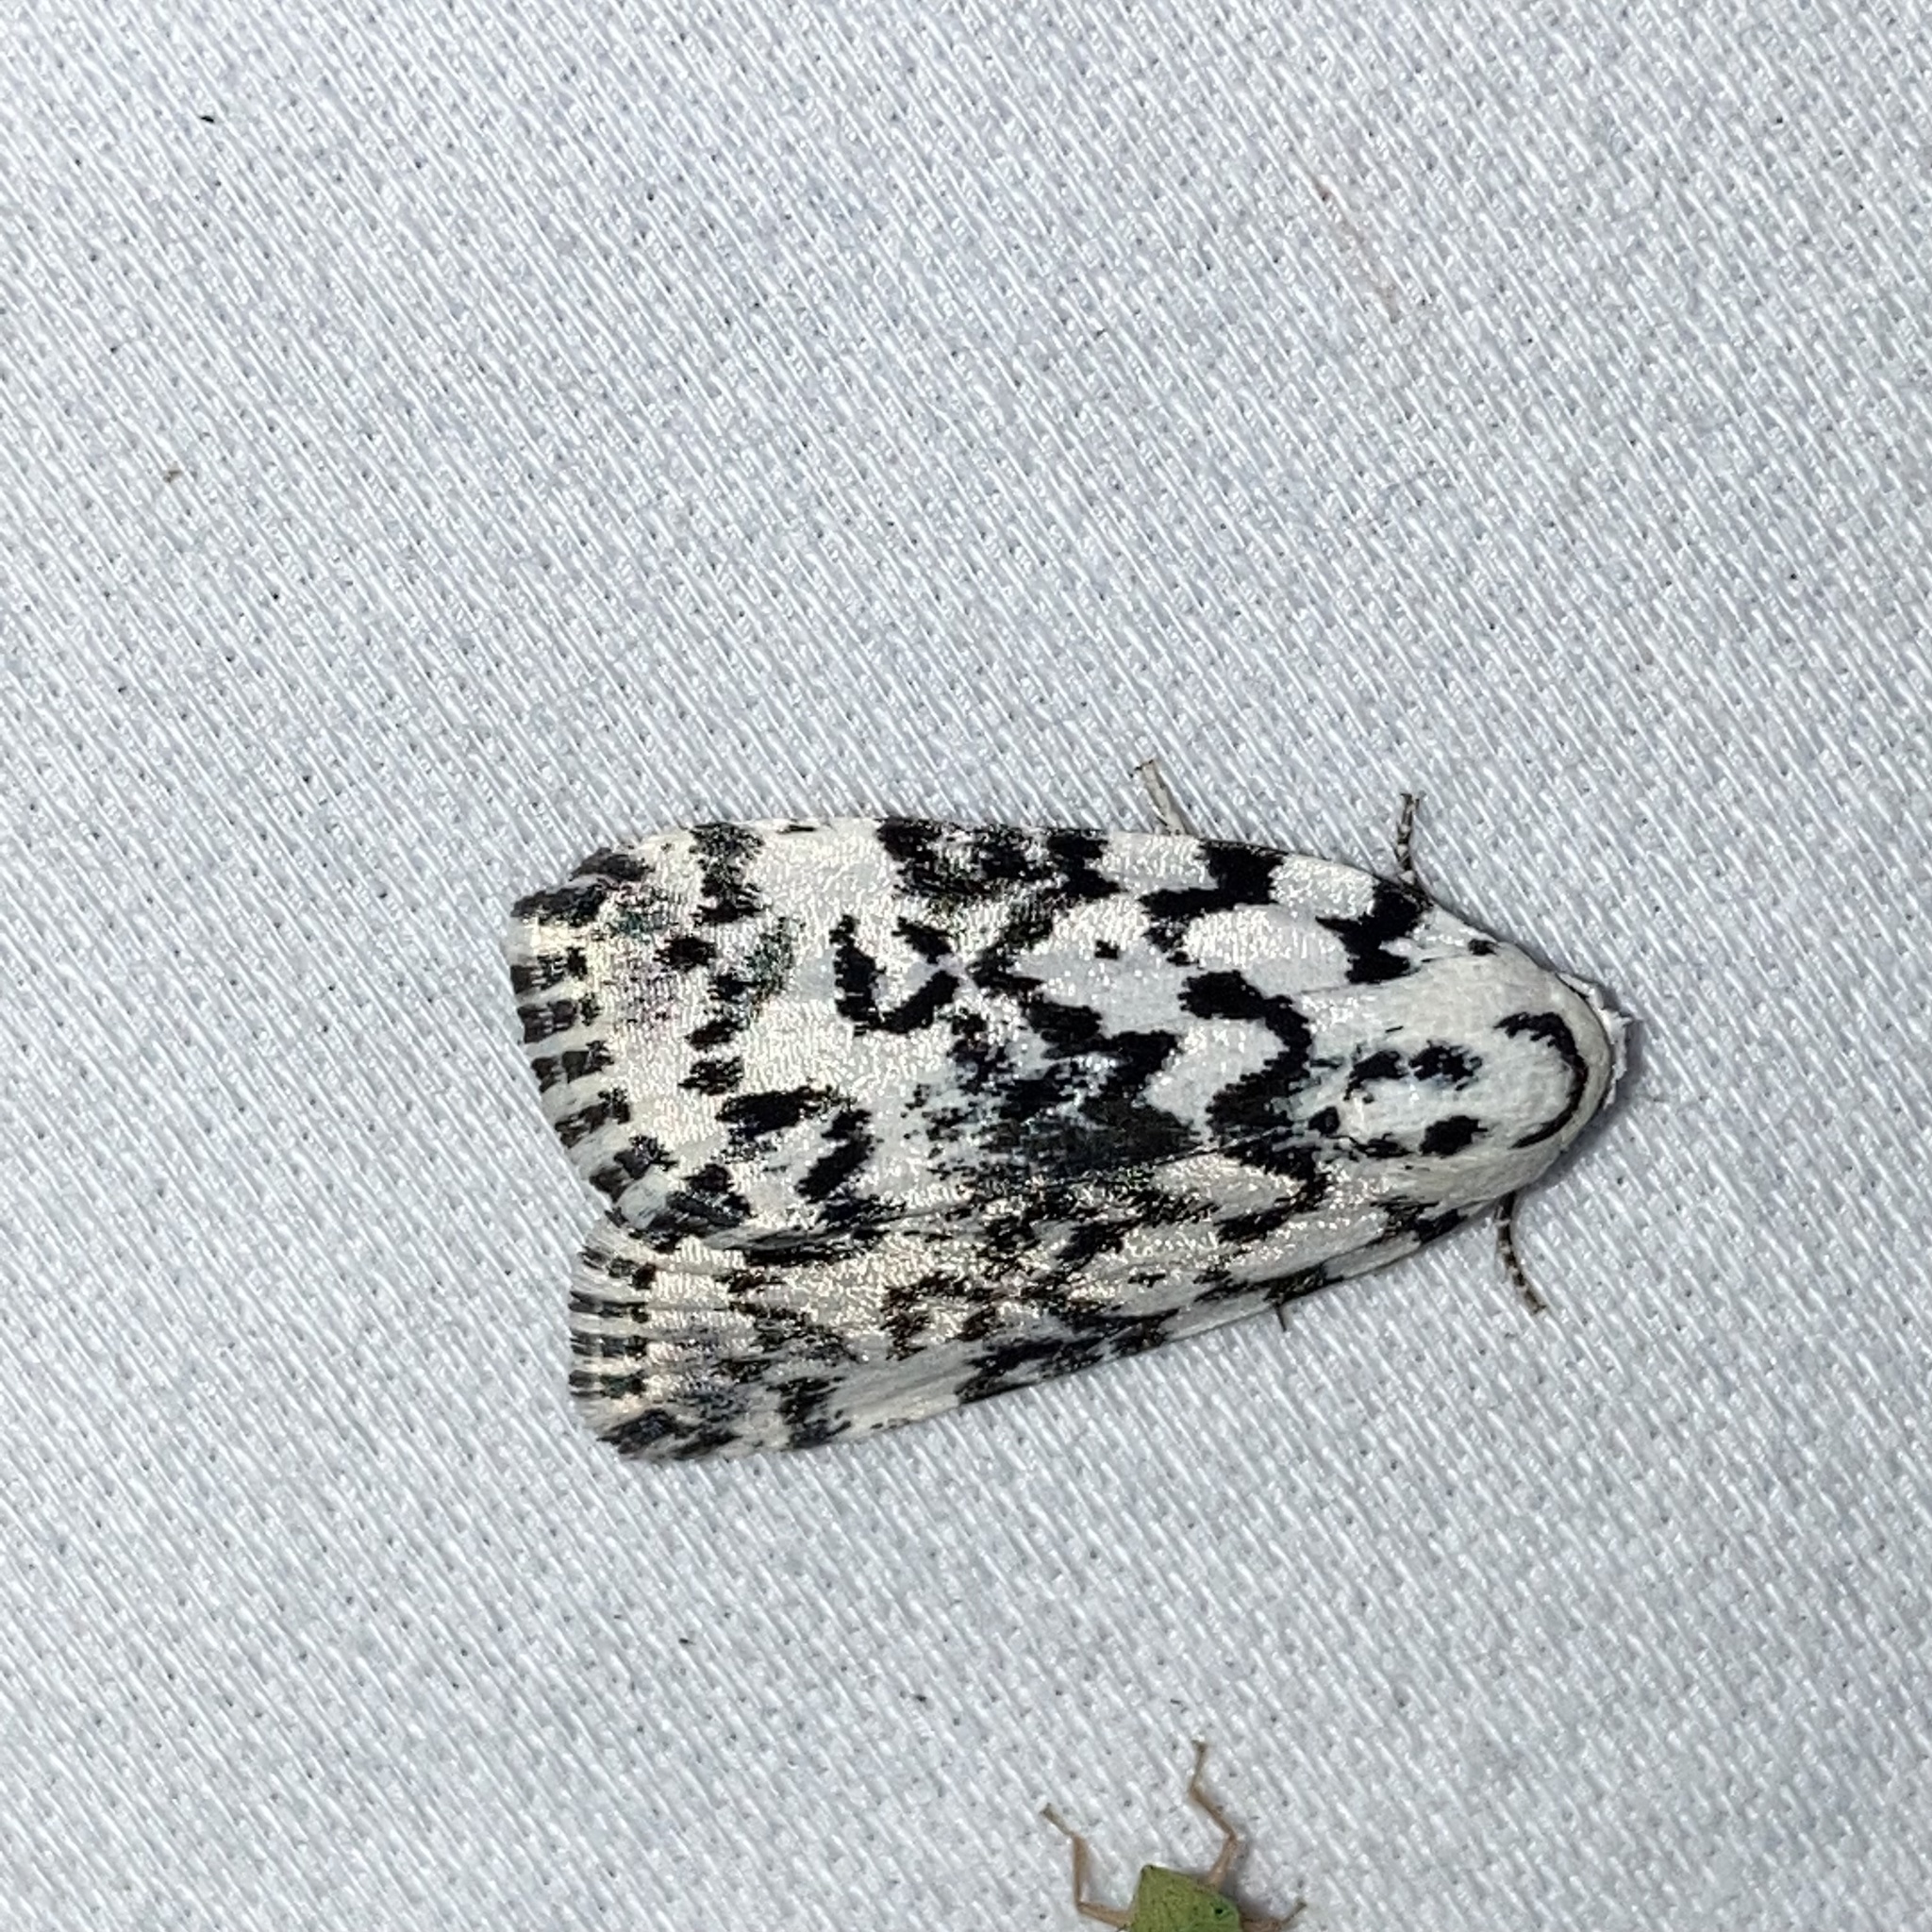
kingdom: Animalia
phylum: Arthropoda
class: Insecta
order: Lepidoptera
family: Noctuidae
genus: Polygrammate
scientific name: Polygrammate hebraeicum
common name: Hebrew moth
